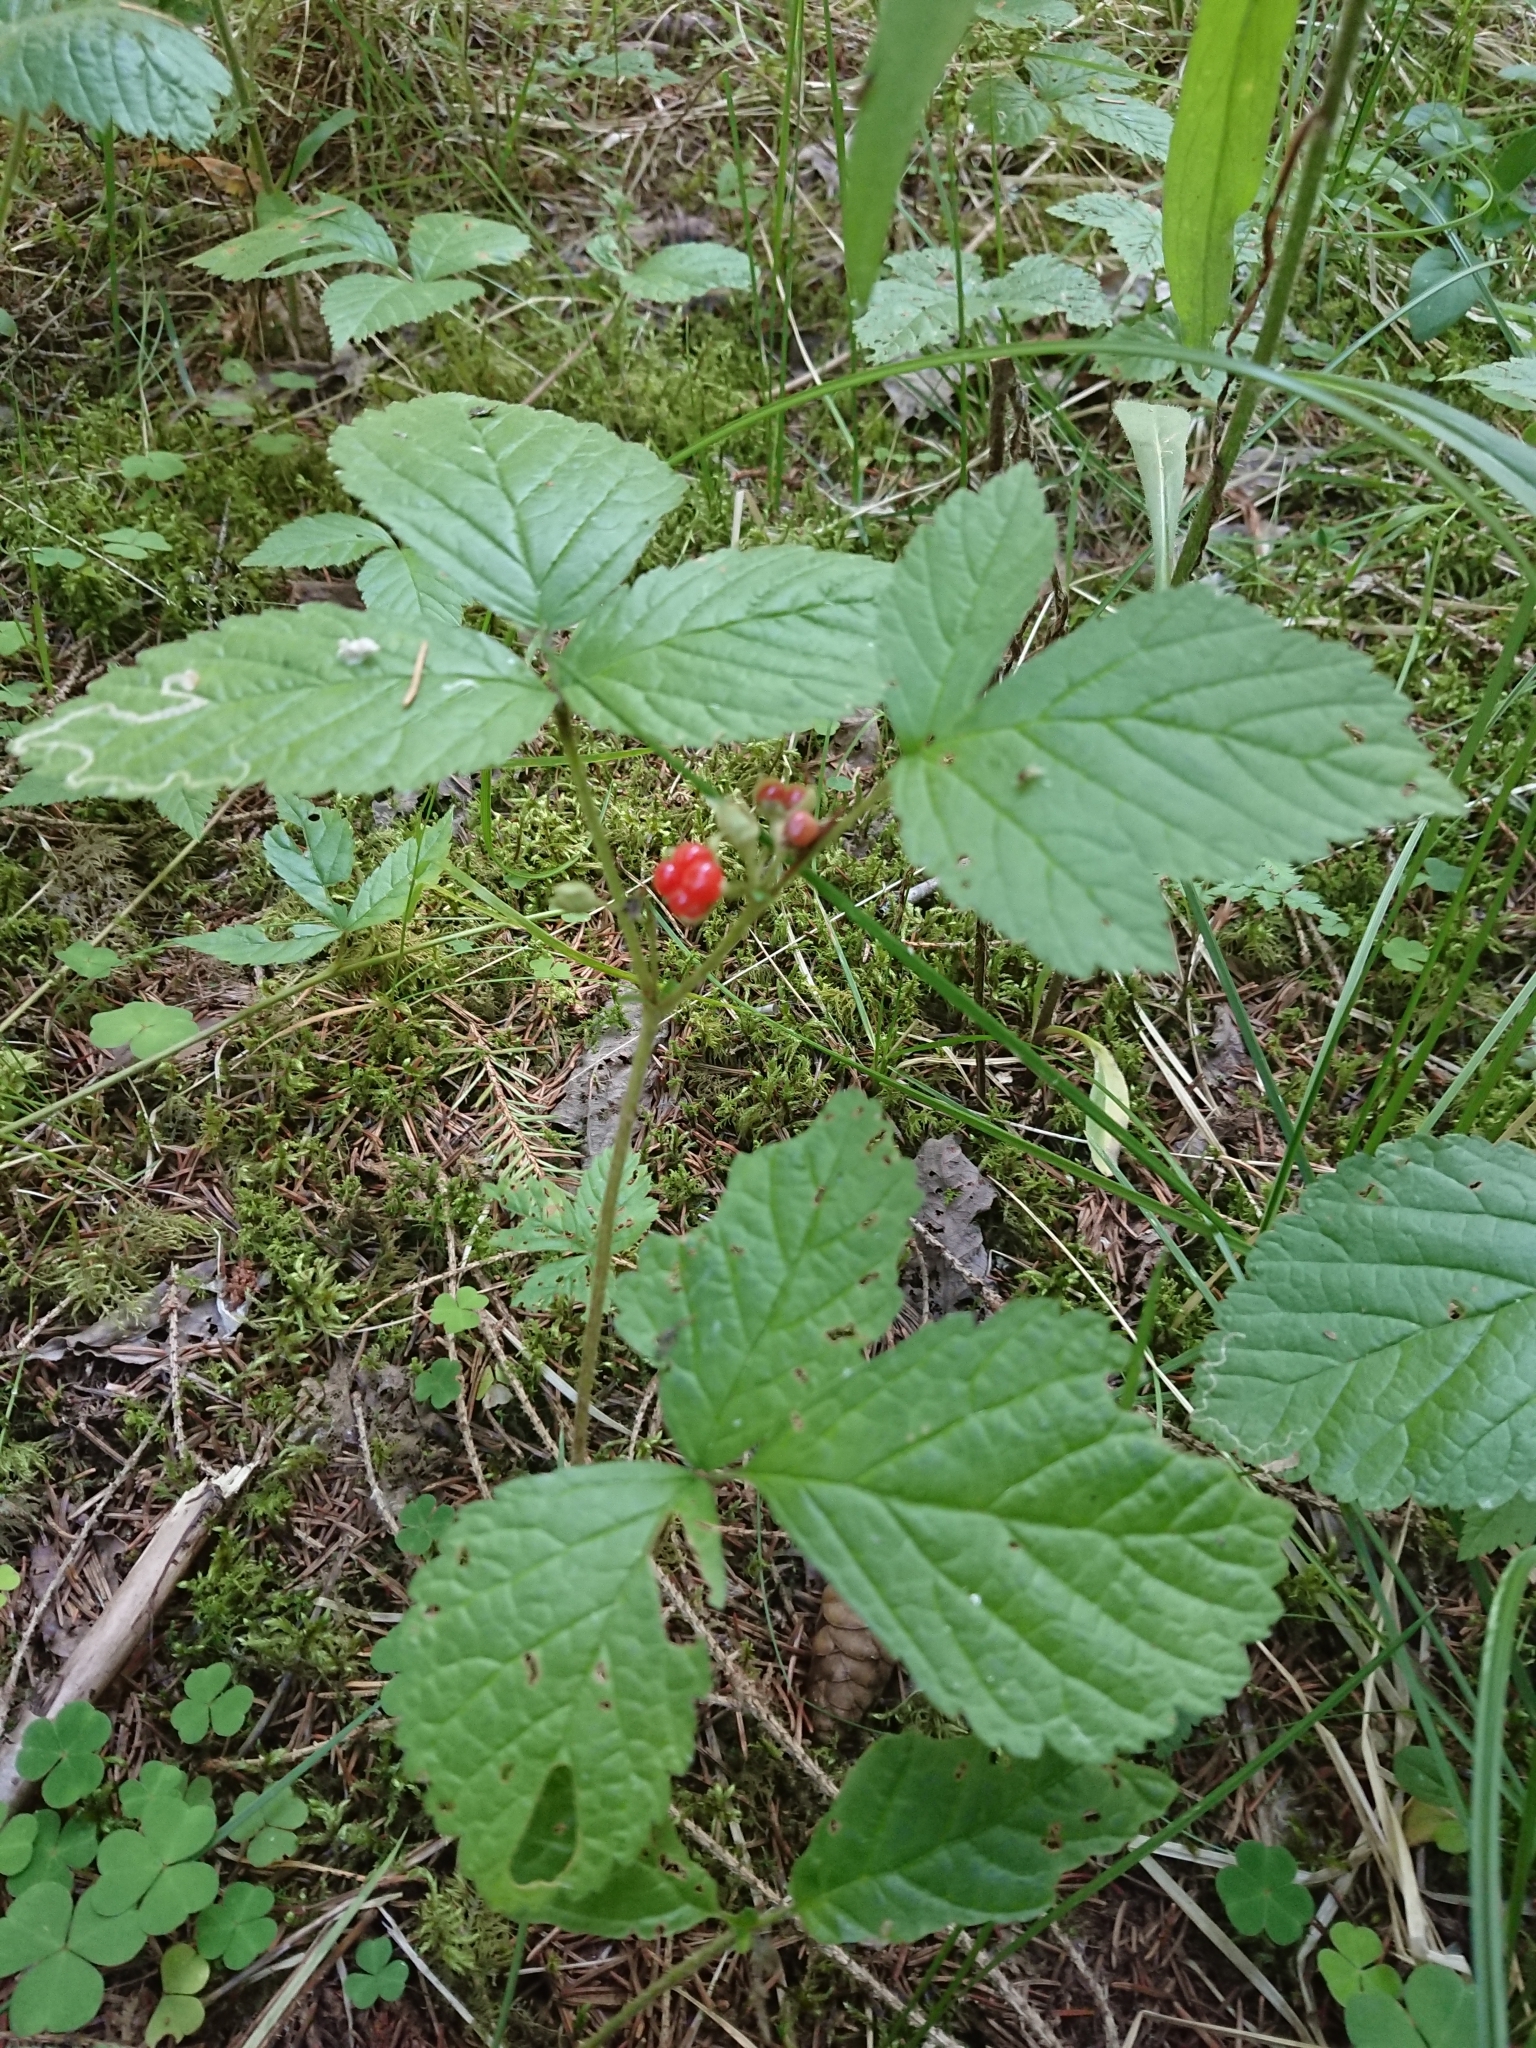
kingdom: Plantae
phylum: Tracheophyta
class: Magnoliopsida
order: Rosales
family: Rosaceae
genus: Rubus
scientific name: Rubus saxatilis
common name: Stone bramble
